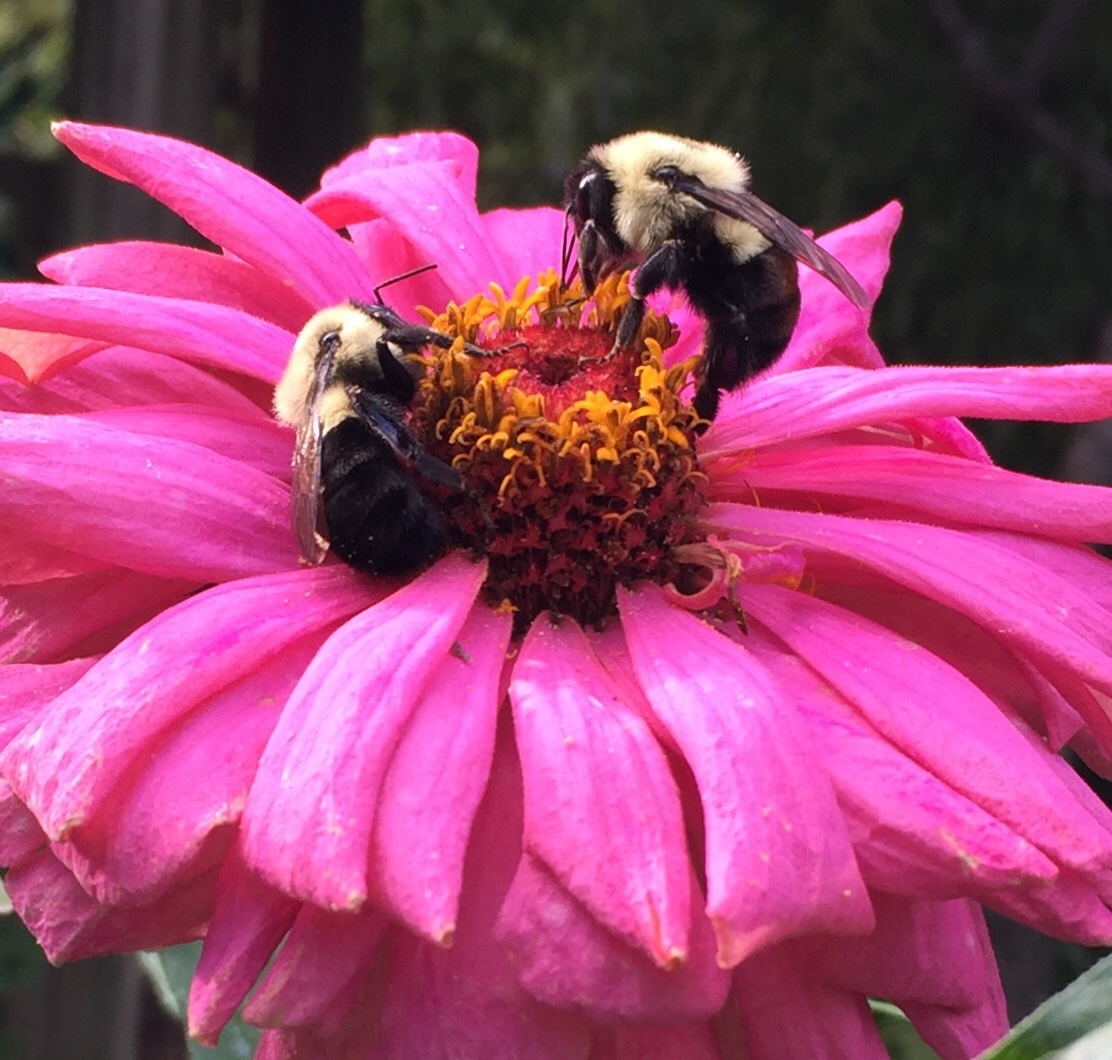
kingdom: Animalia
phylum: Arthropoda
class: Insecta
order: Hymenoptera
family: Apidae
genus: Bombus
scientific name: Bombus impatiens
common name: Common eastern bumble bee
